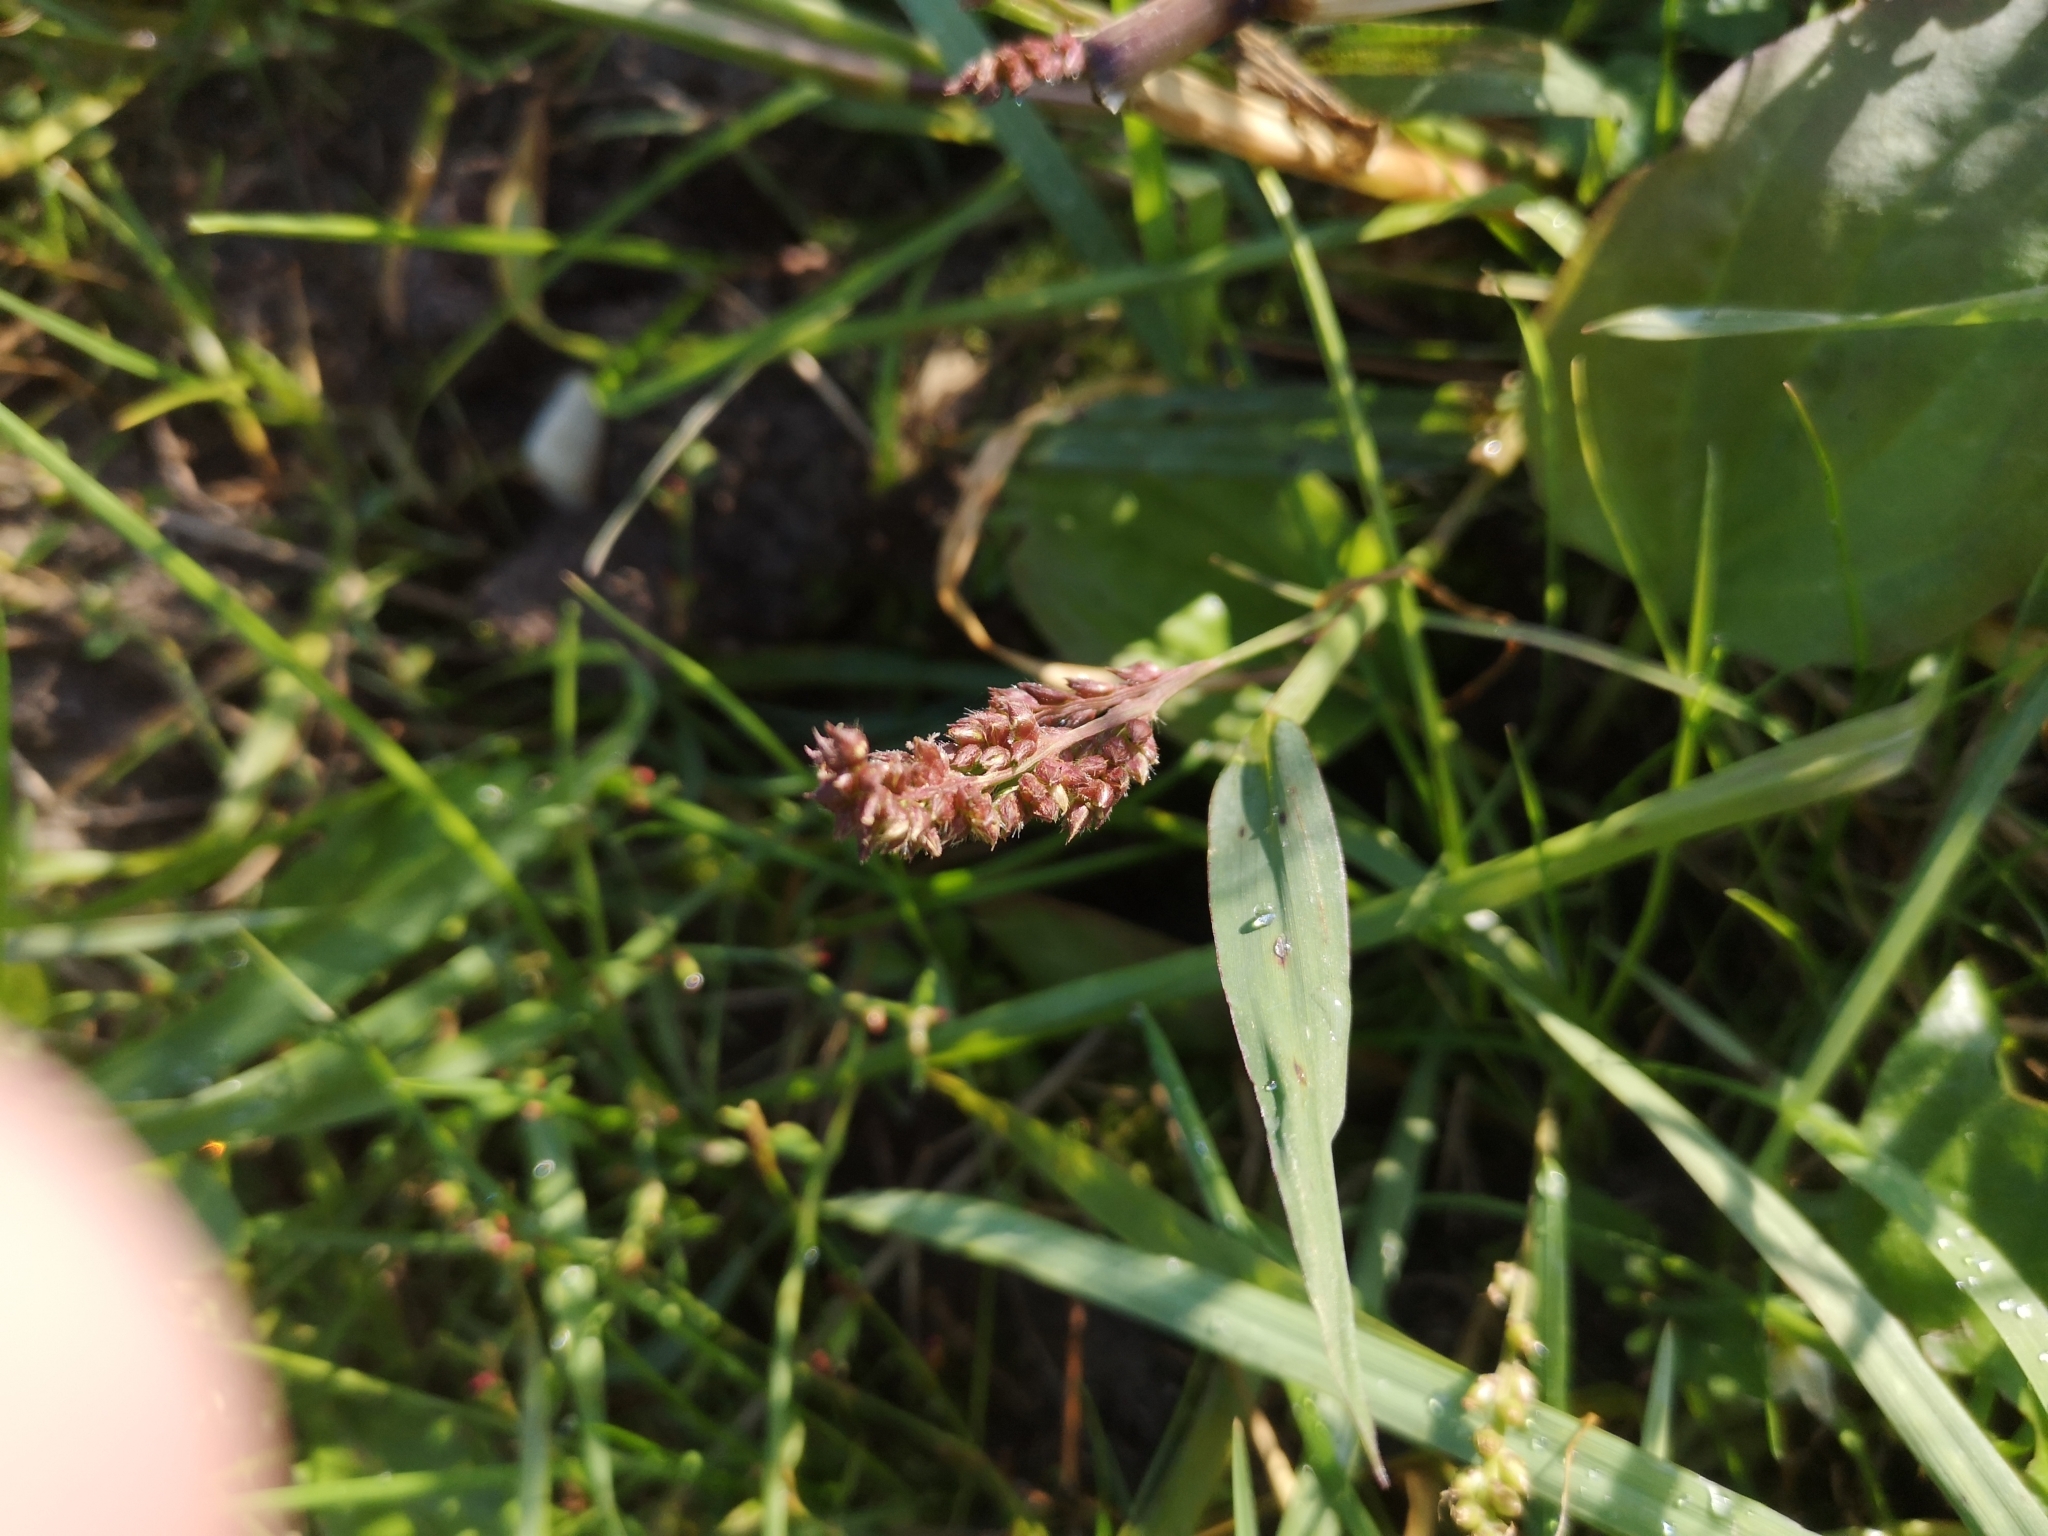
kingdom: Plantae
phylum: Tracheophyta
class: Liliopsida
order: Poales
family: Poaceae
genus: Echinochloa
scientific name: Echinochloa crus-galli
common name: Cockspur
